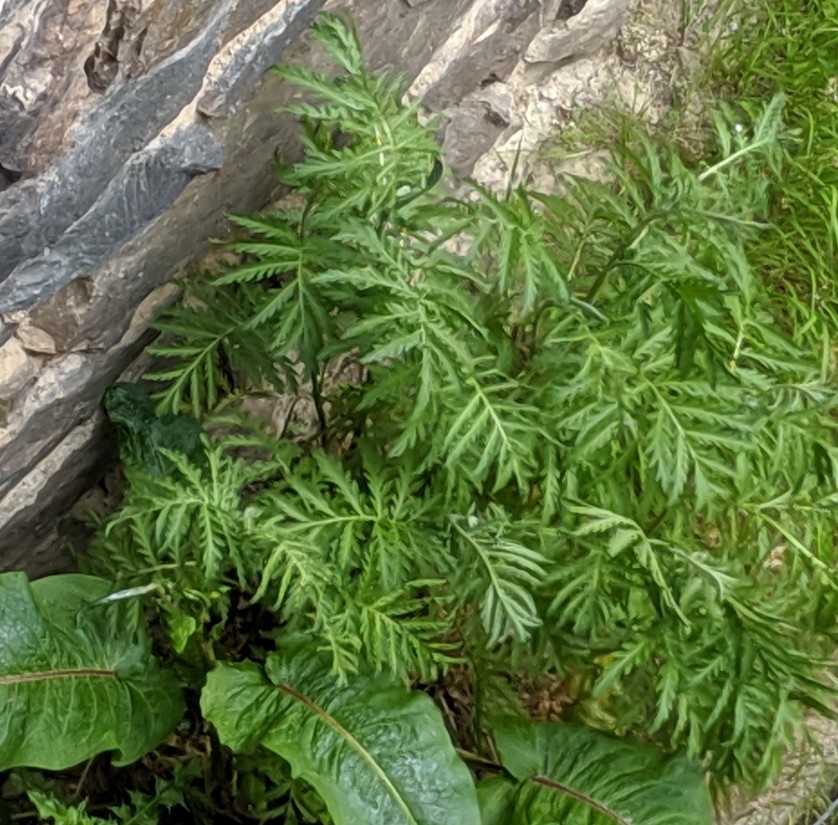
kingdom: Plantae
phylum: Tracheophyta
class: Magnoliopsida
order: Asterales
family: Asteraceae
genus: Tanacetum
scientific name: Tanacetum vulgare
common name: Common tansy
